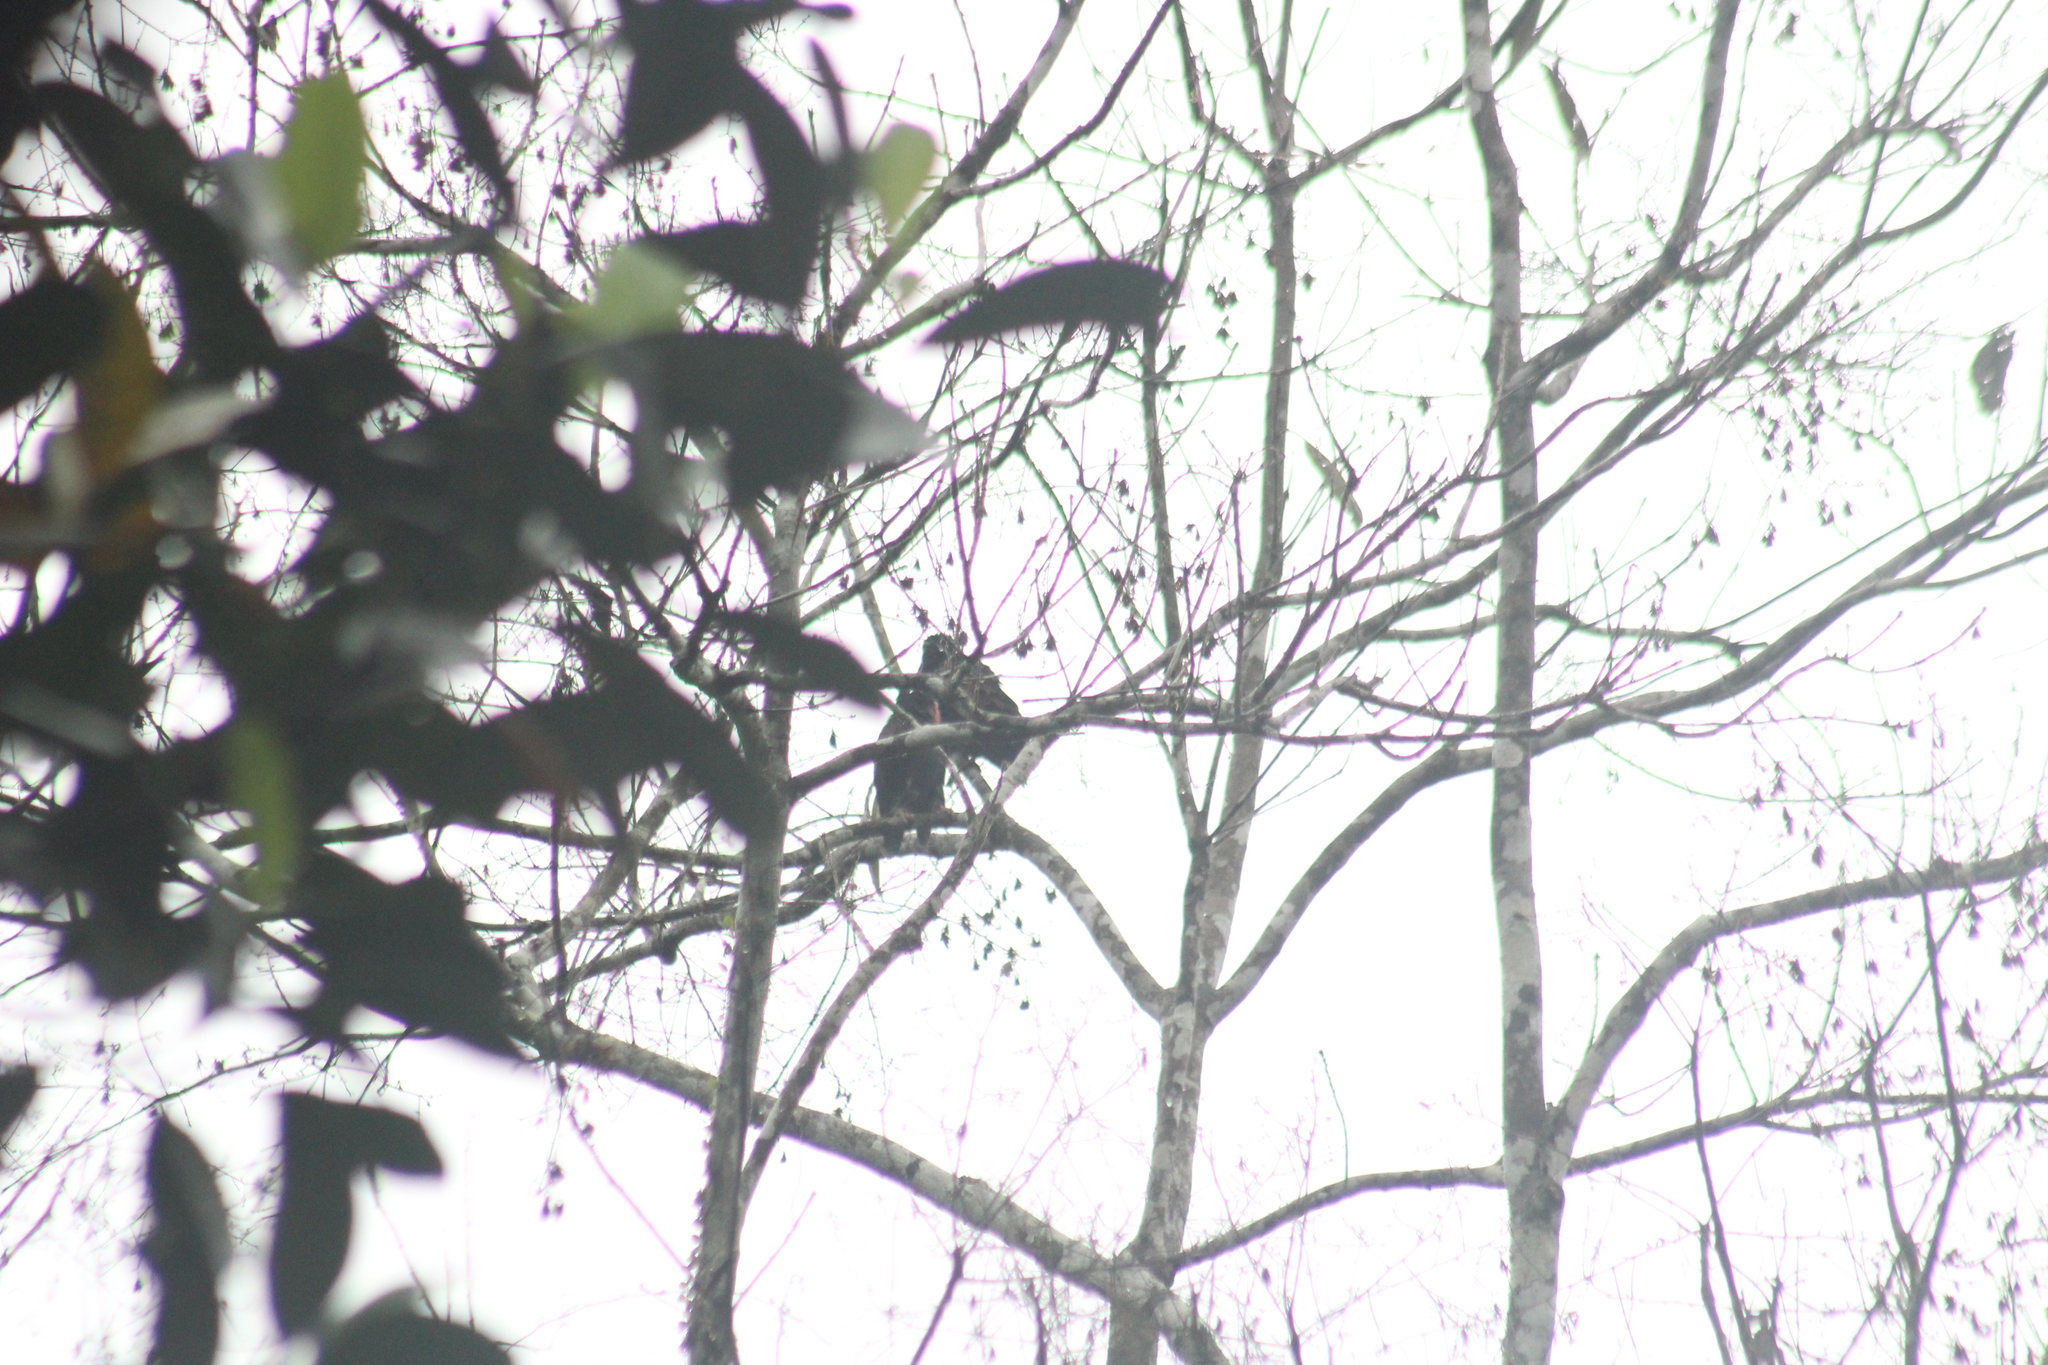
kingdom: Animalia
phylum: Chordata
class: Aves
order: Psittaciformes
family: Psittacidae
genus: Pionus
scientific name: Pionus chalcopterus
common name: Bronze-winged parrot
